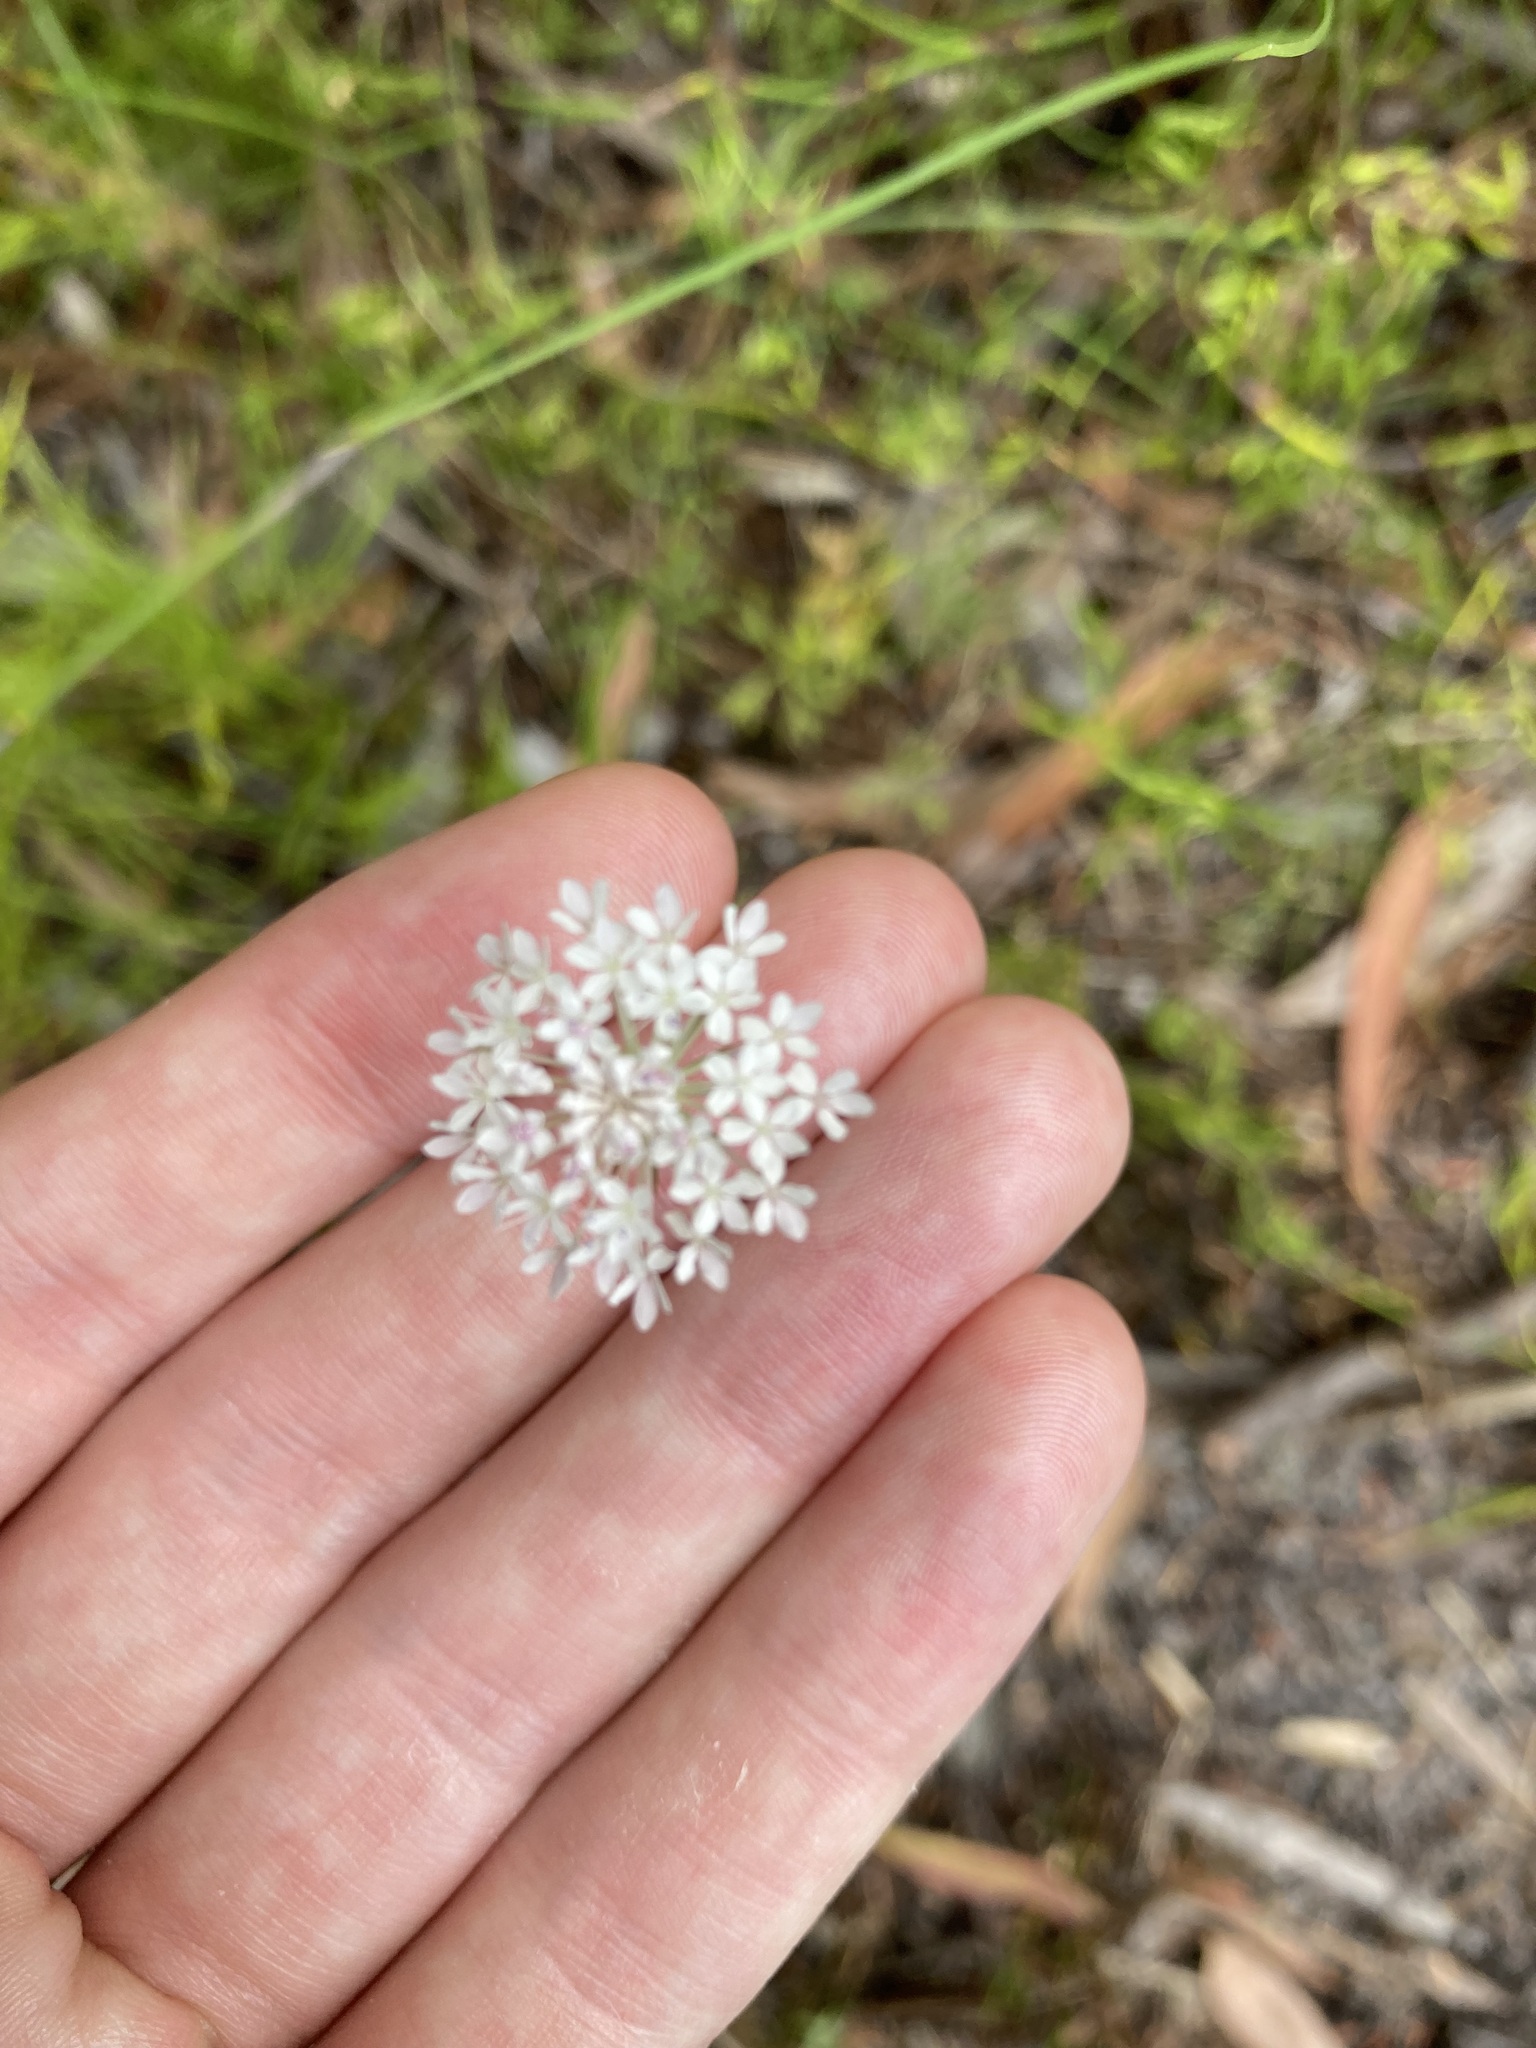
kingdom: Plantae
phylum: Tracheophyta
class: Magnoliopsida
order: Apiales
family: Araliaceae
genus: Trachymene
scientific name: Trachymene incisa
